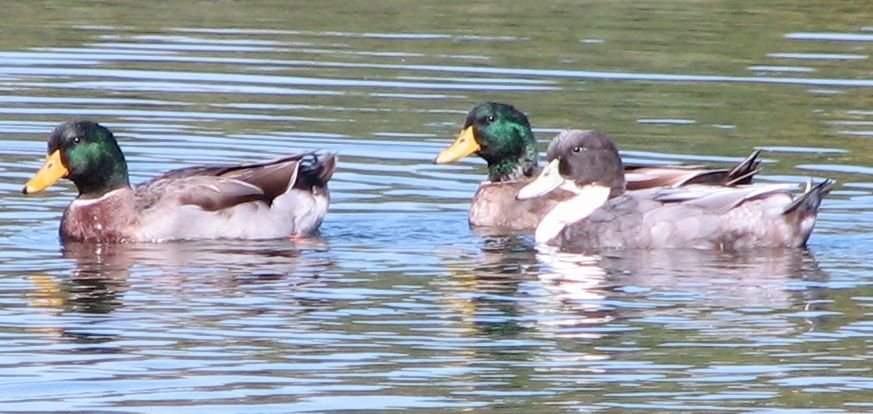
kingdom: Animalia
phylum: Chordata
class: Aves
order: Anseriformes
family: Anatidae
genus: Anas
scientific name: Anas platyrhynchos
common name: Mallard
